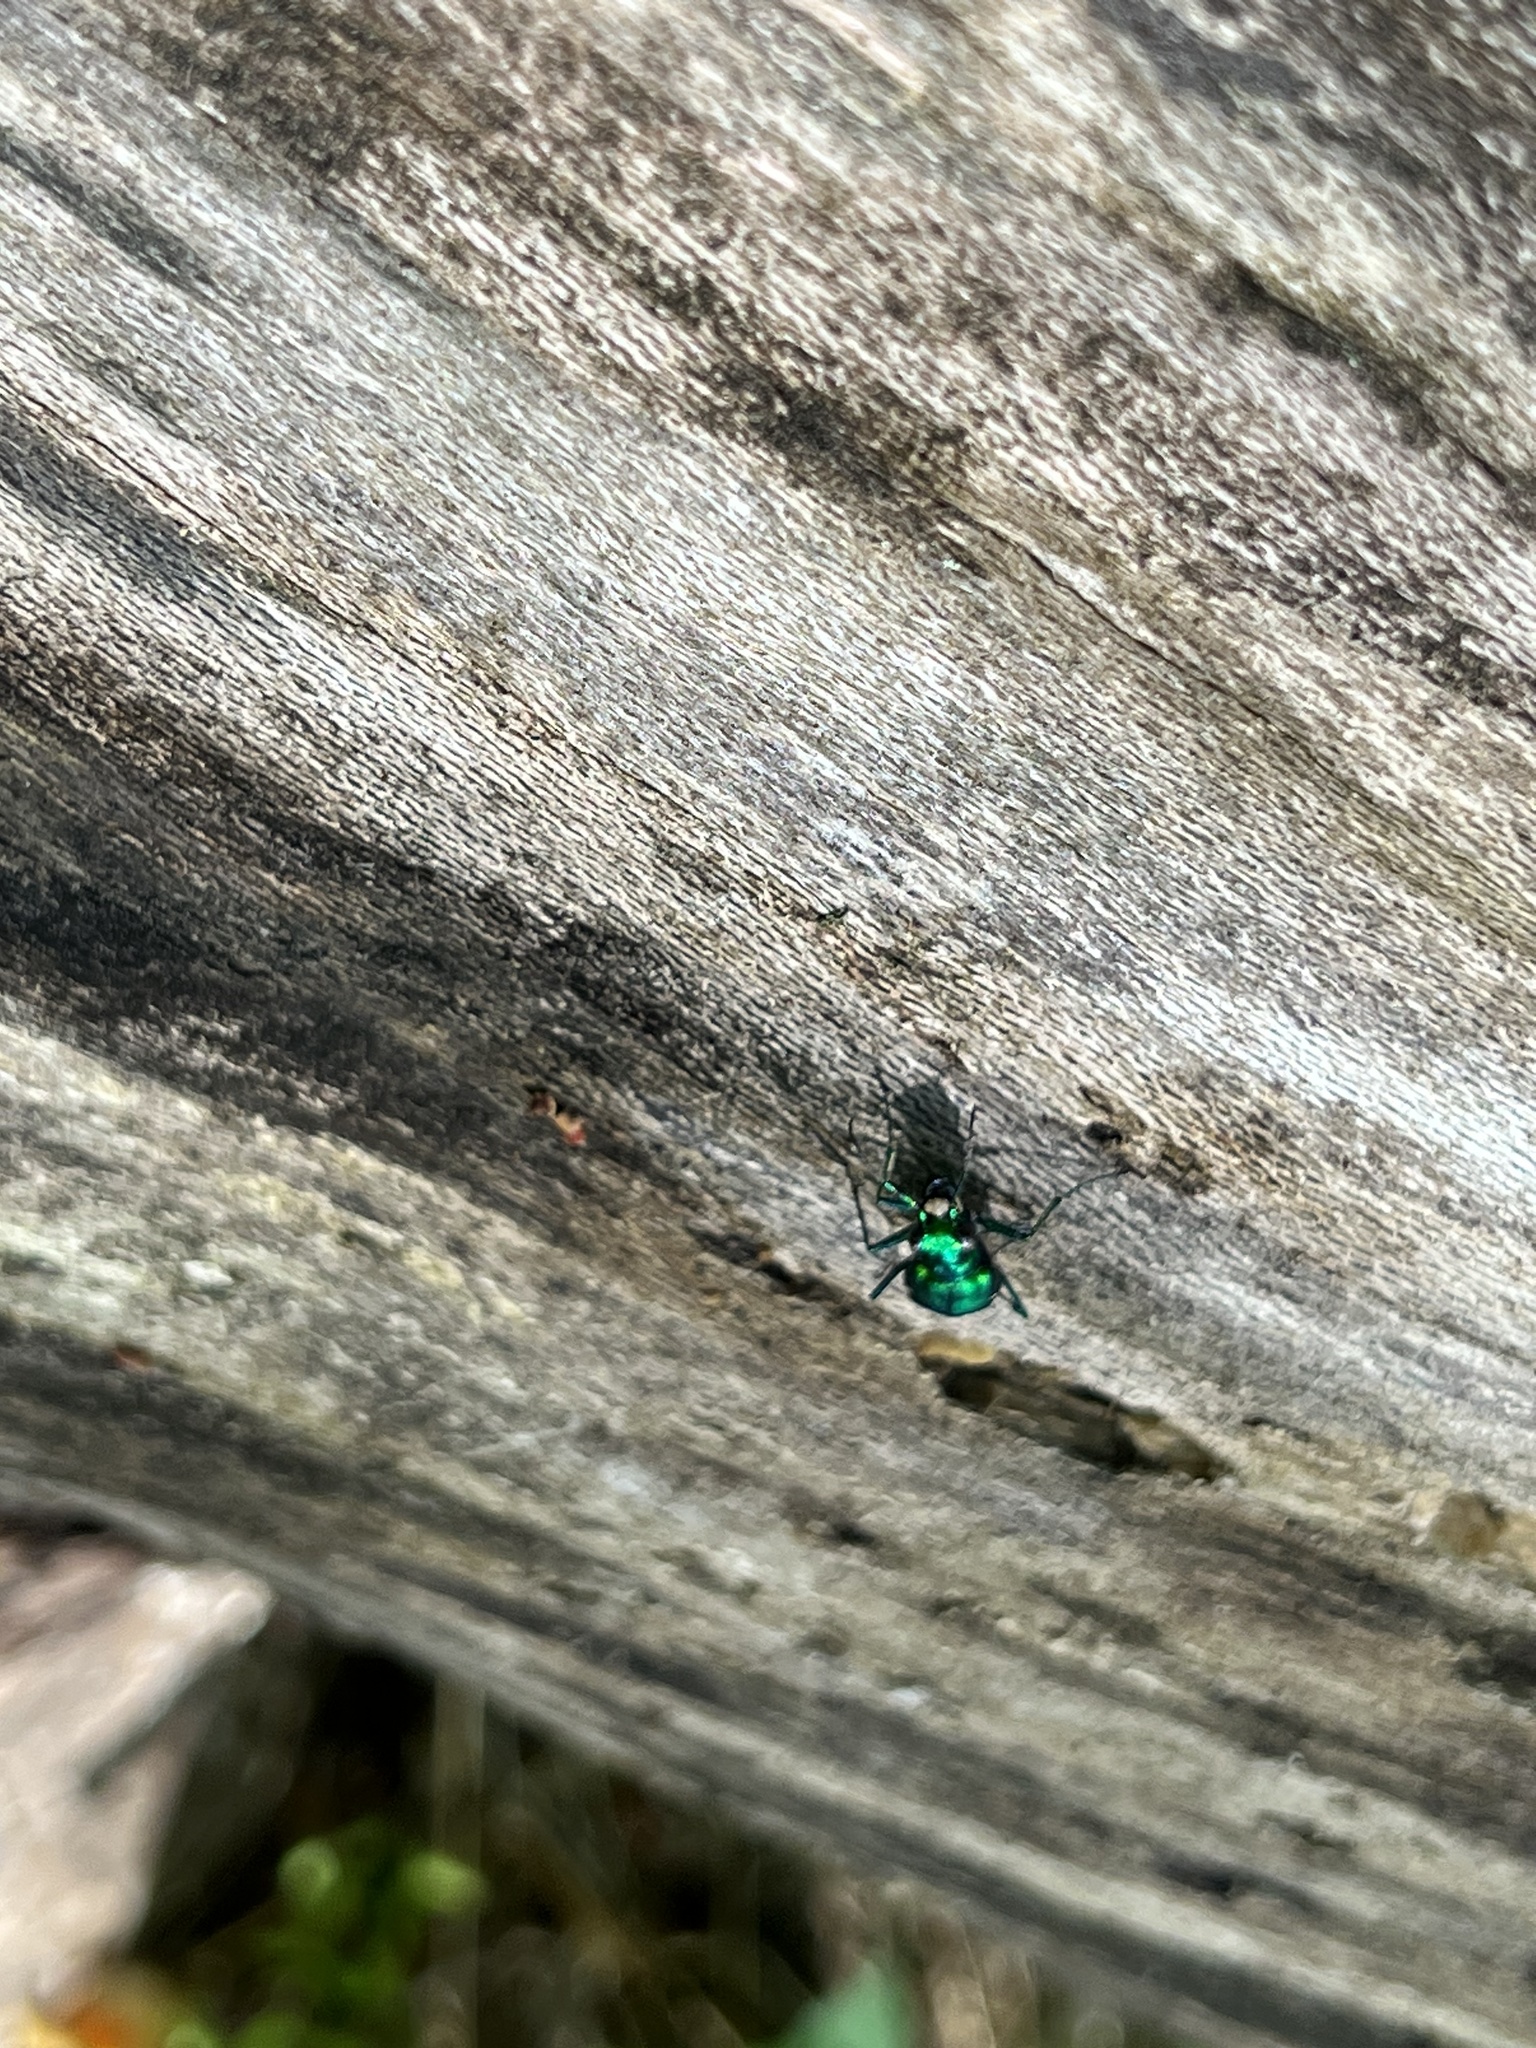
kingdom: Animalia
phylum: Arthropoda
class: Insecta
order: Coleoptera
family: Carabidae
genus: Cicindela
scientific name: Cicindela sexguttata
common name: Six-spotted tiger beetle
